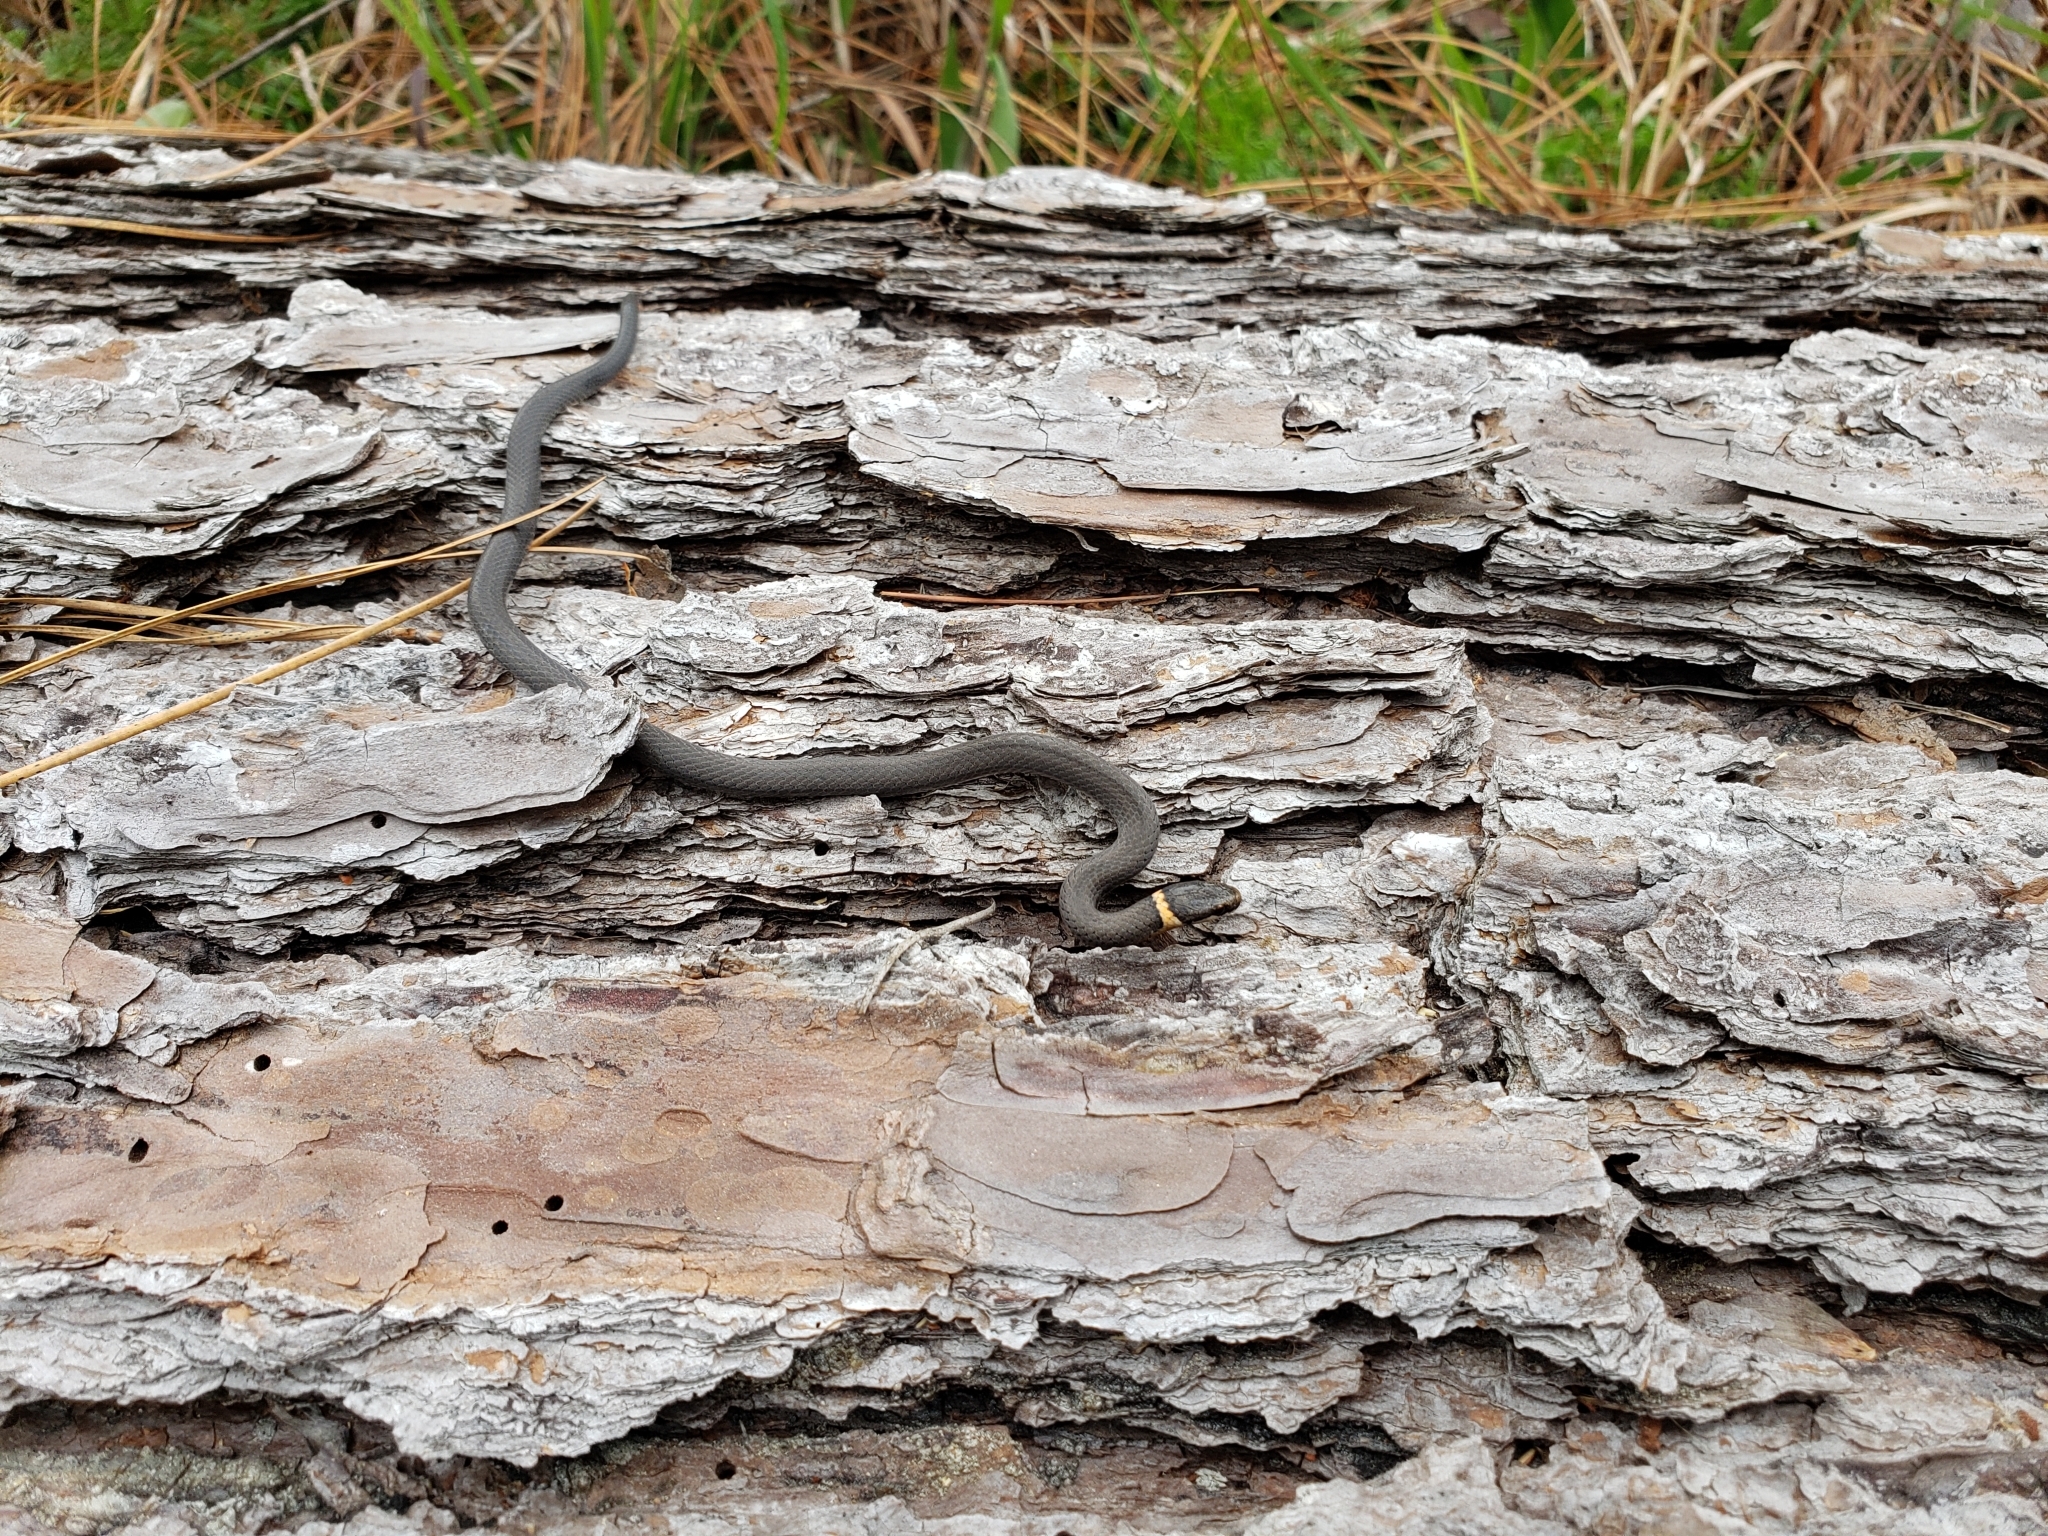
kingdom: Animalia
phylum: Chordata
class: Squamata
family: Colubridae
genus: Diadophis
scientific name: Diadophis punctatus
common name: Ringneck snake
